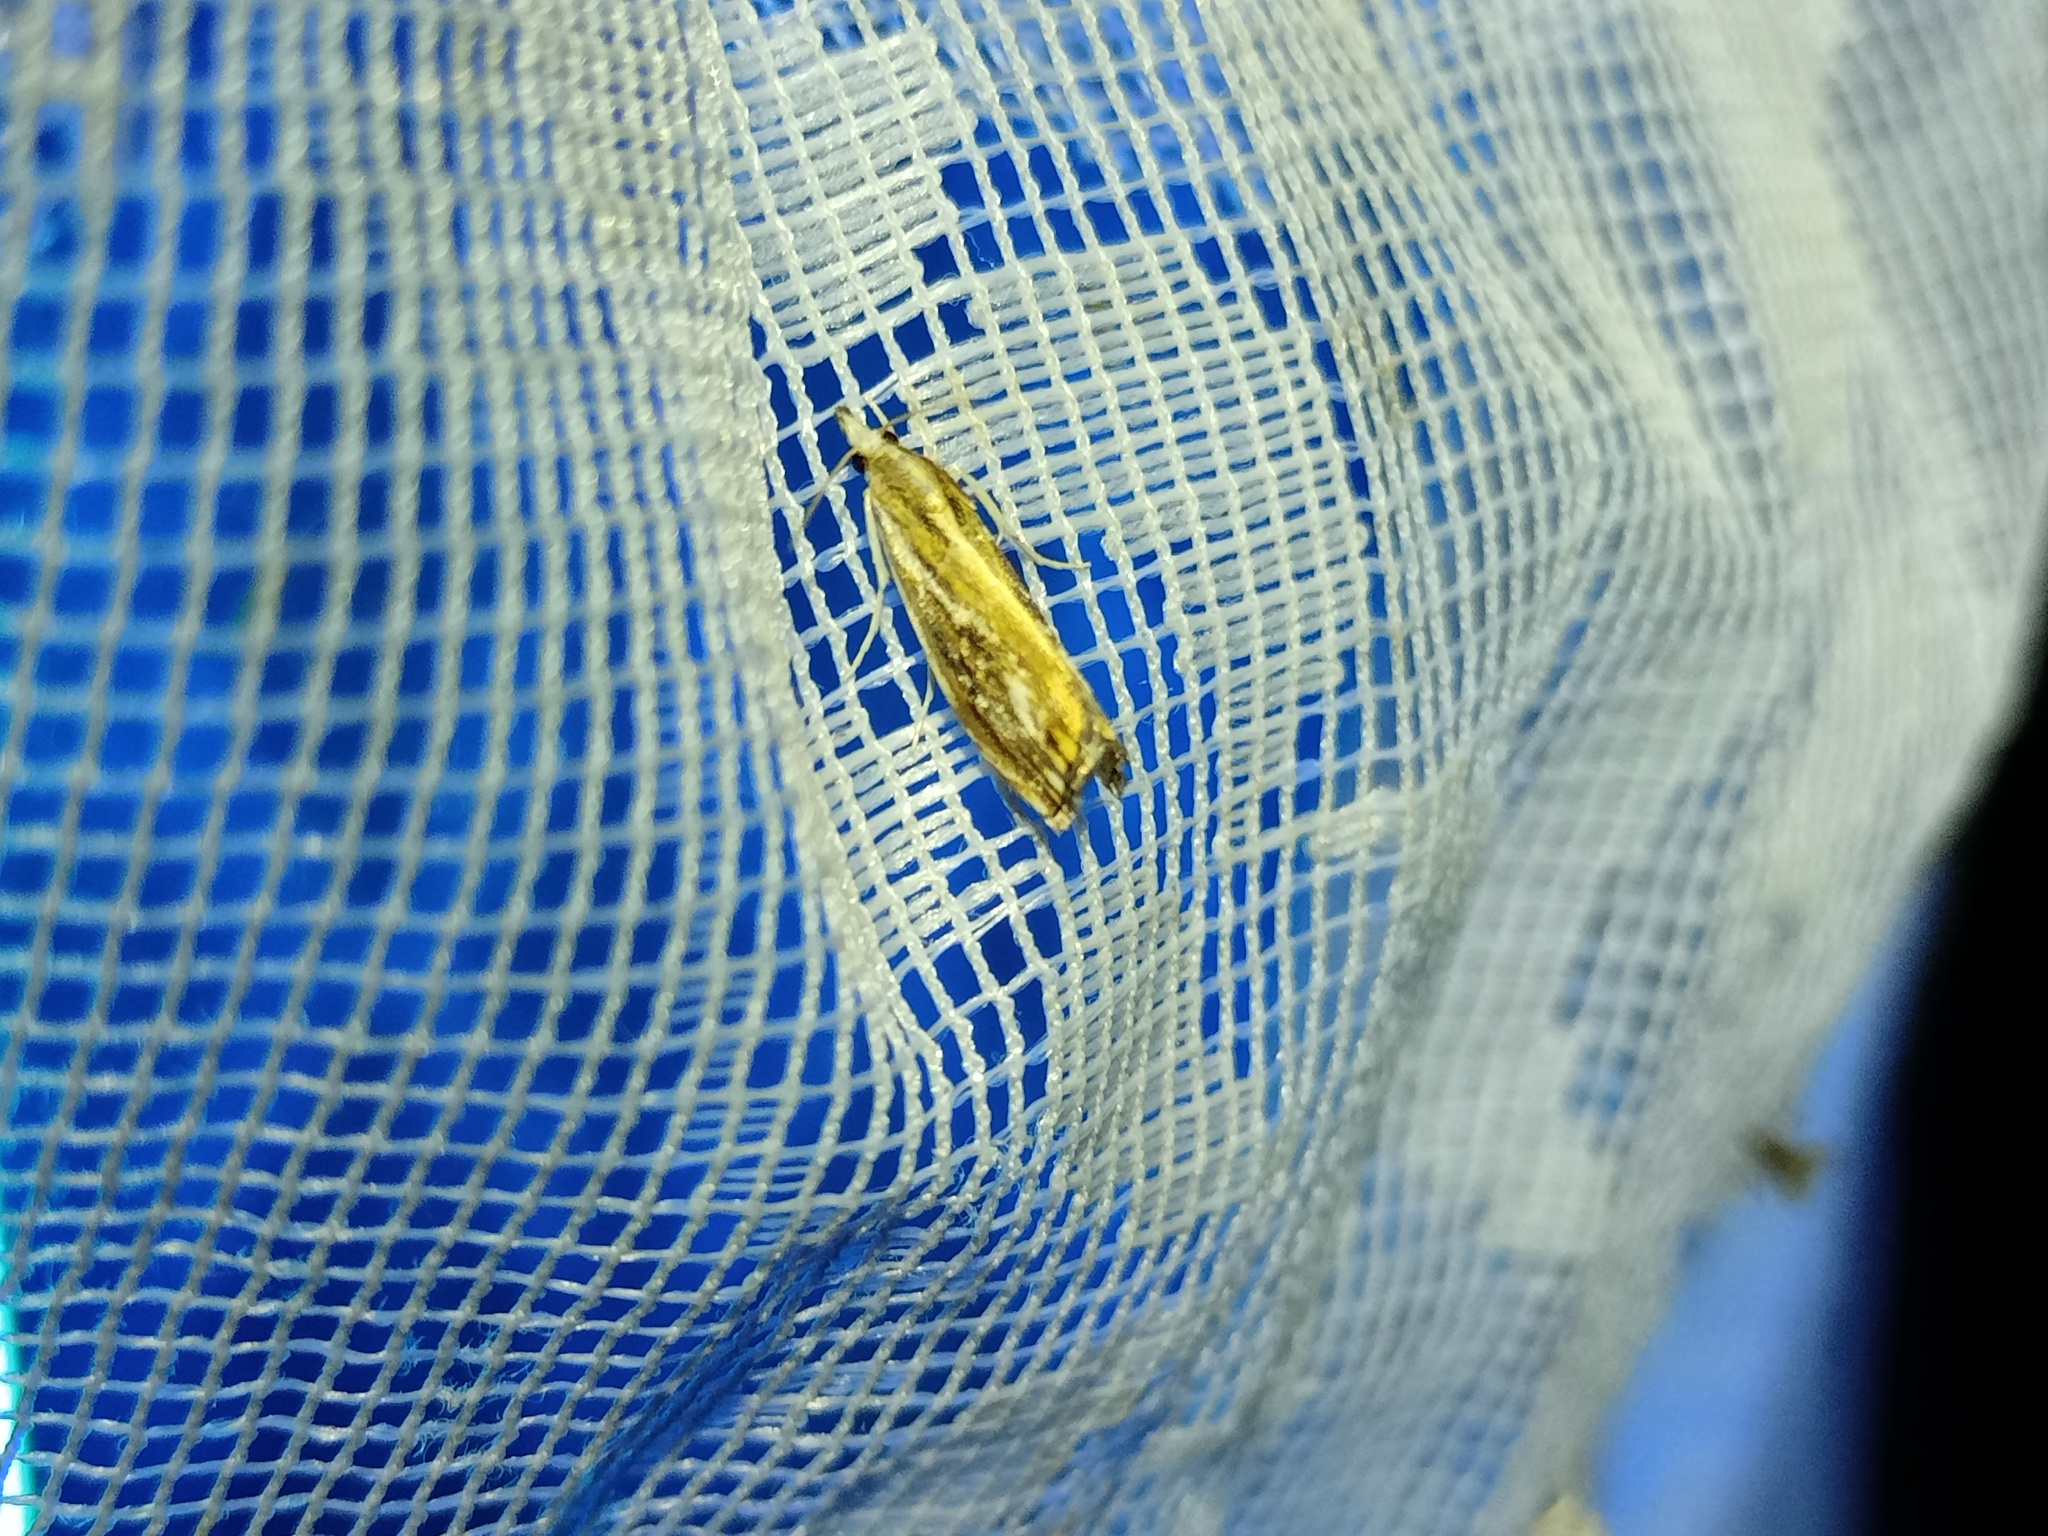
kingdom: Animalia
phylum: Arthropoda
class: Insecta
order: Lepidoptera
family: Crambidae
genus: Catoptria
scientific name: Catoptria verellus
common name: Marbled grass-veneer
